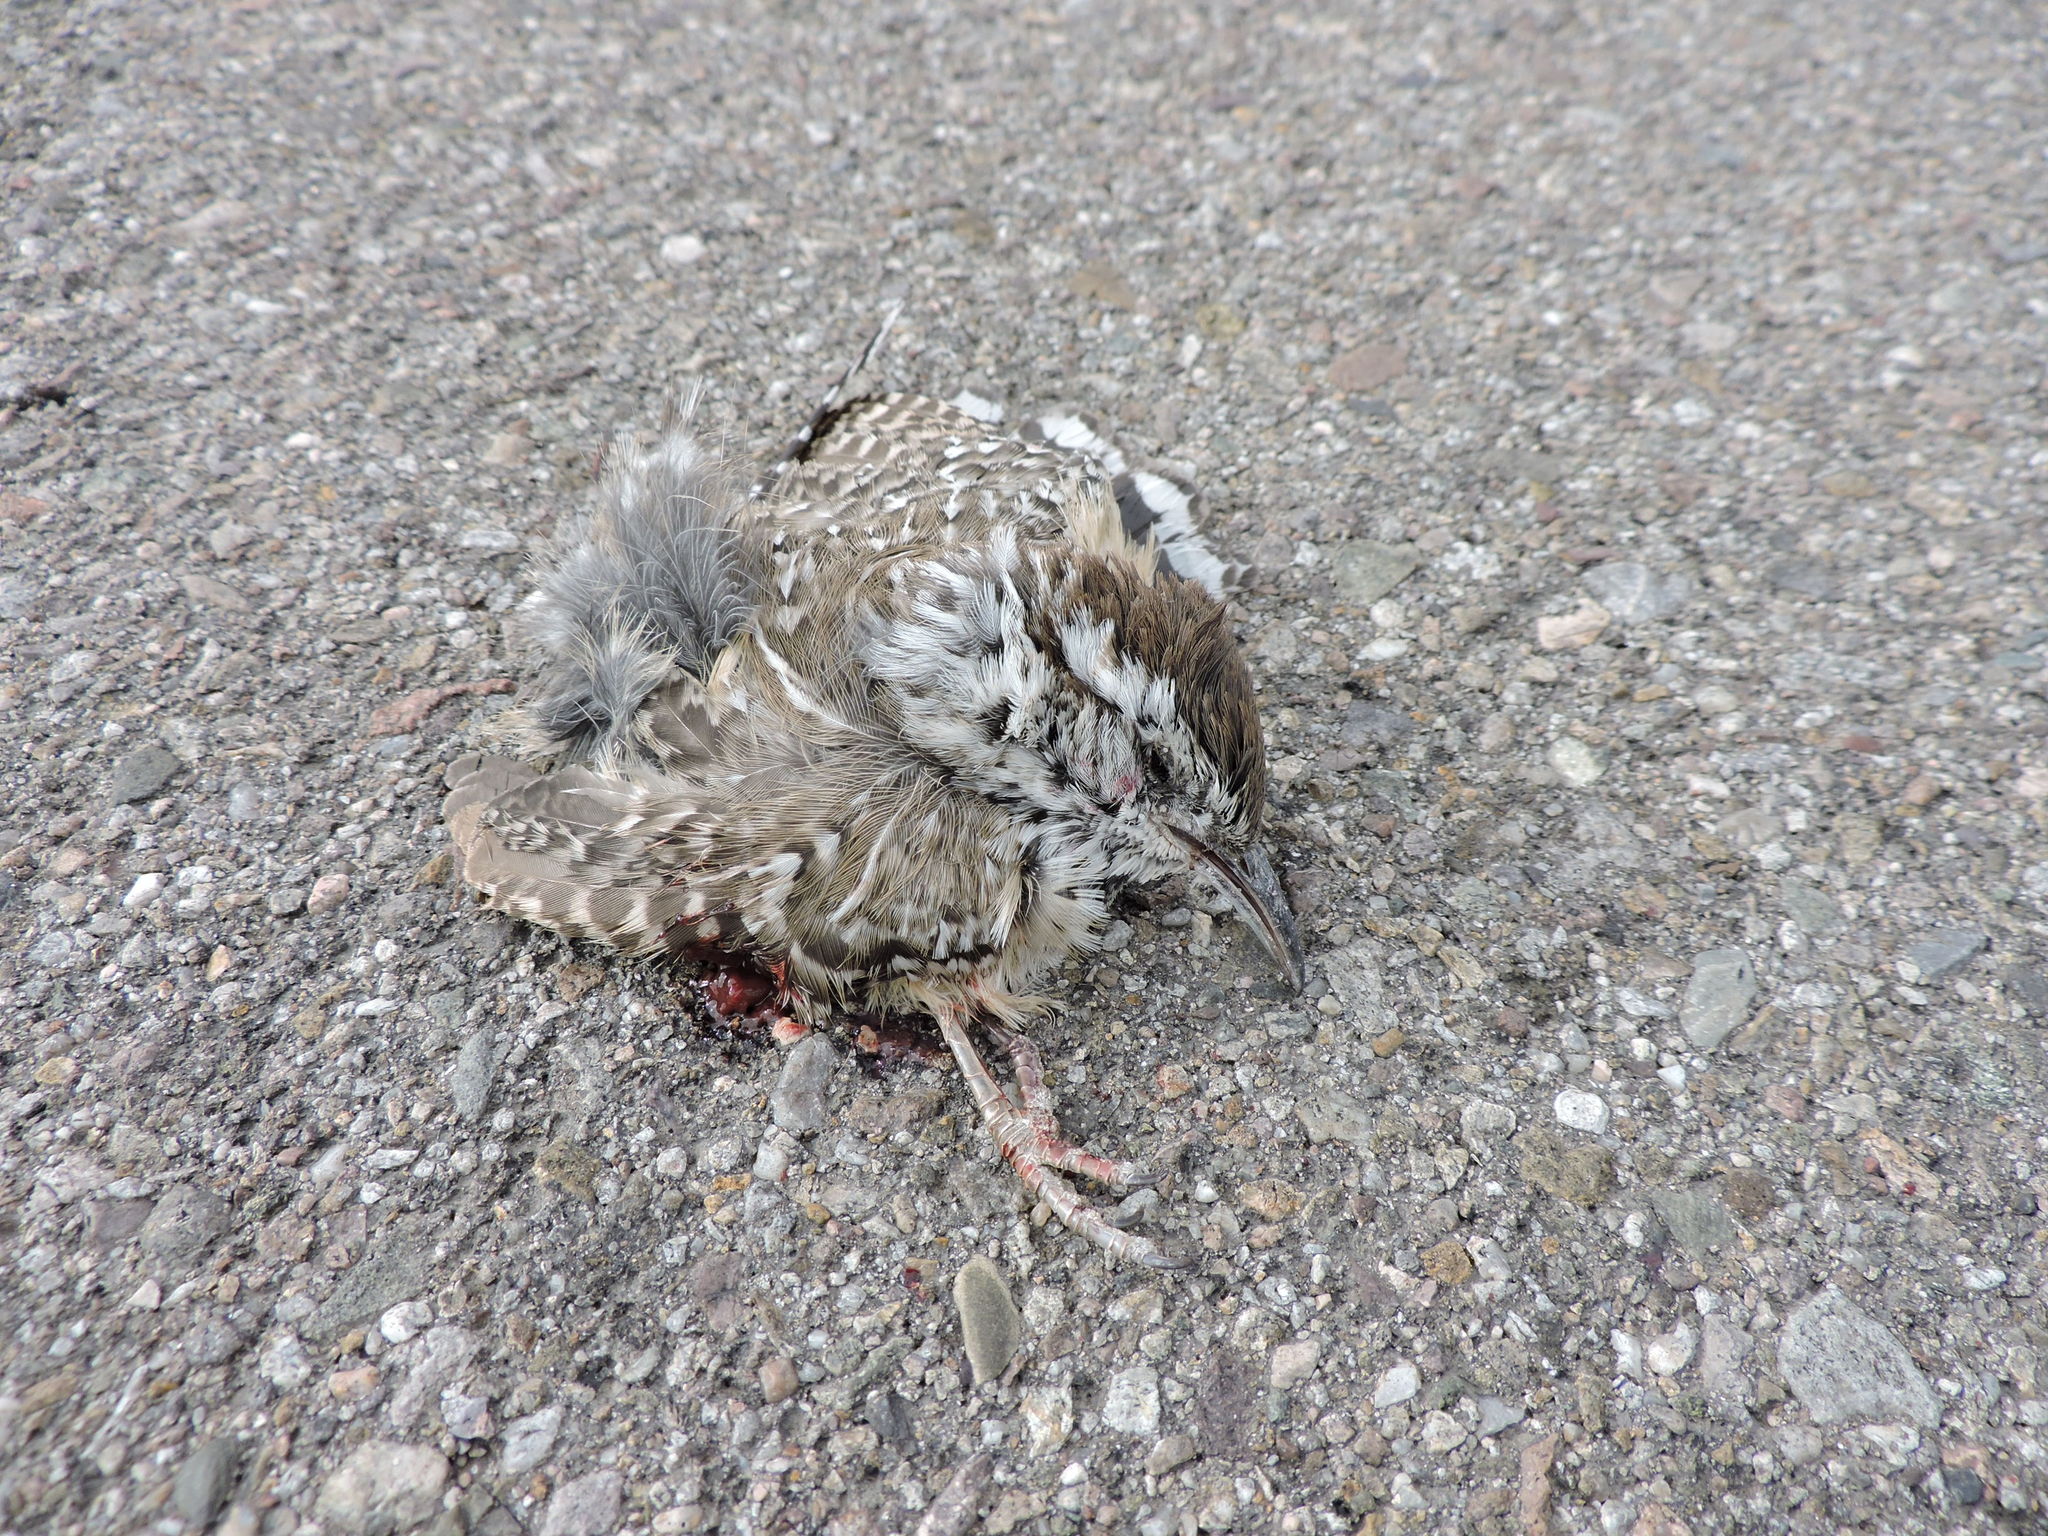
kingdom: Animalia
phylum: Chordata
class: Aves
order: Passeriformes
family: Troglodytidae
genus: Campylorhynchus
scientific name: Campylorhynchus brunneicapillus
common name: Cactus wren
